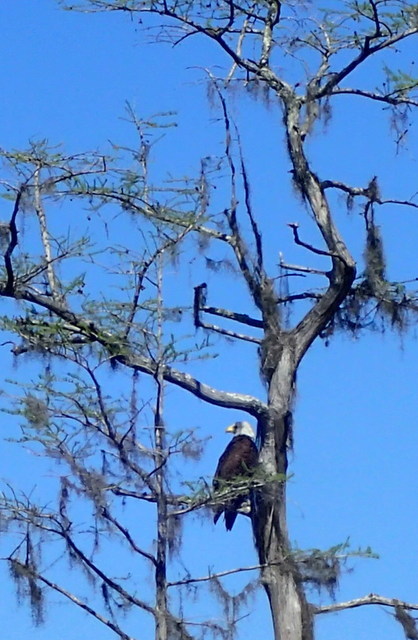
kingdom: Animalia
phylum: Chordata
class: Aves
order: Accipitriformes
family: Accipitridae
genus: Haliaeetus
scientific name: Haliaeetus leucocephalus
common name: Bald eagle
